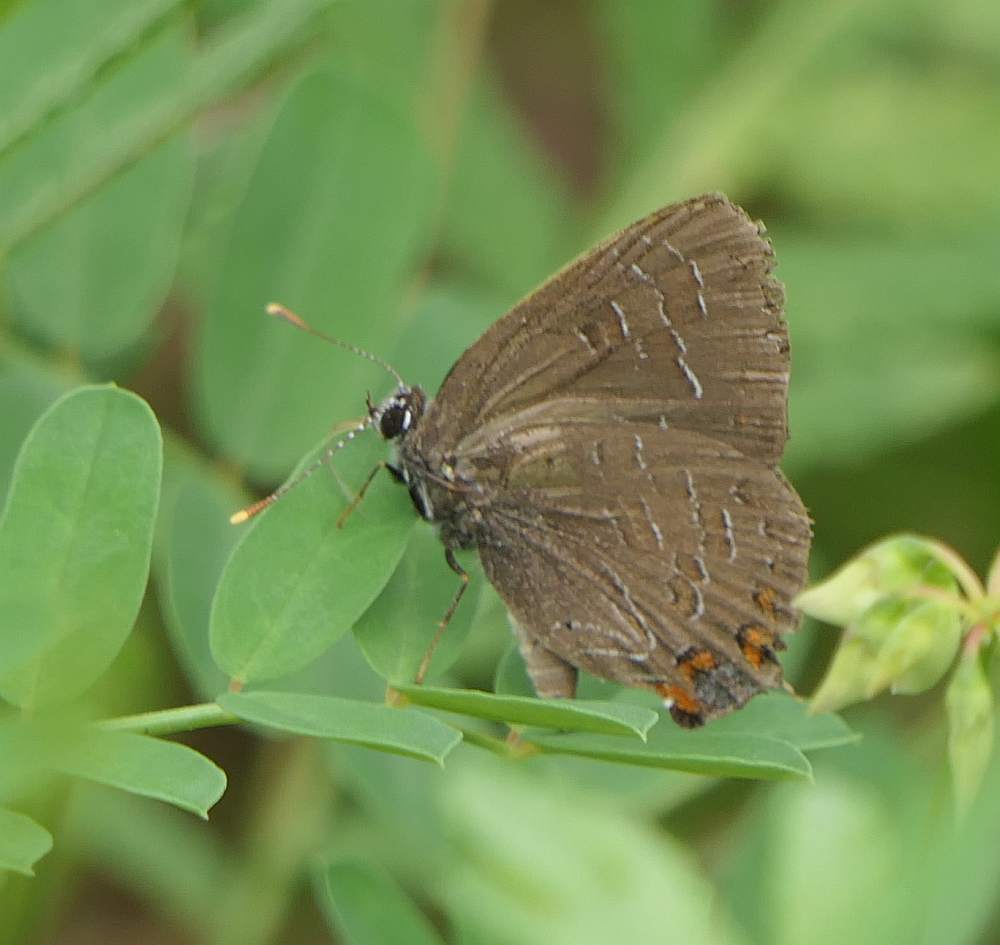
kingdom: Animalia
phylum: Arthropoda
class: Insecta
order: Lepidoptera
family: Lycaenidae
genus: Satyrium
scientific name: Satyrium liparops
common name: Striped hairstreak
